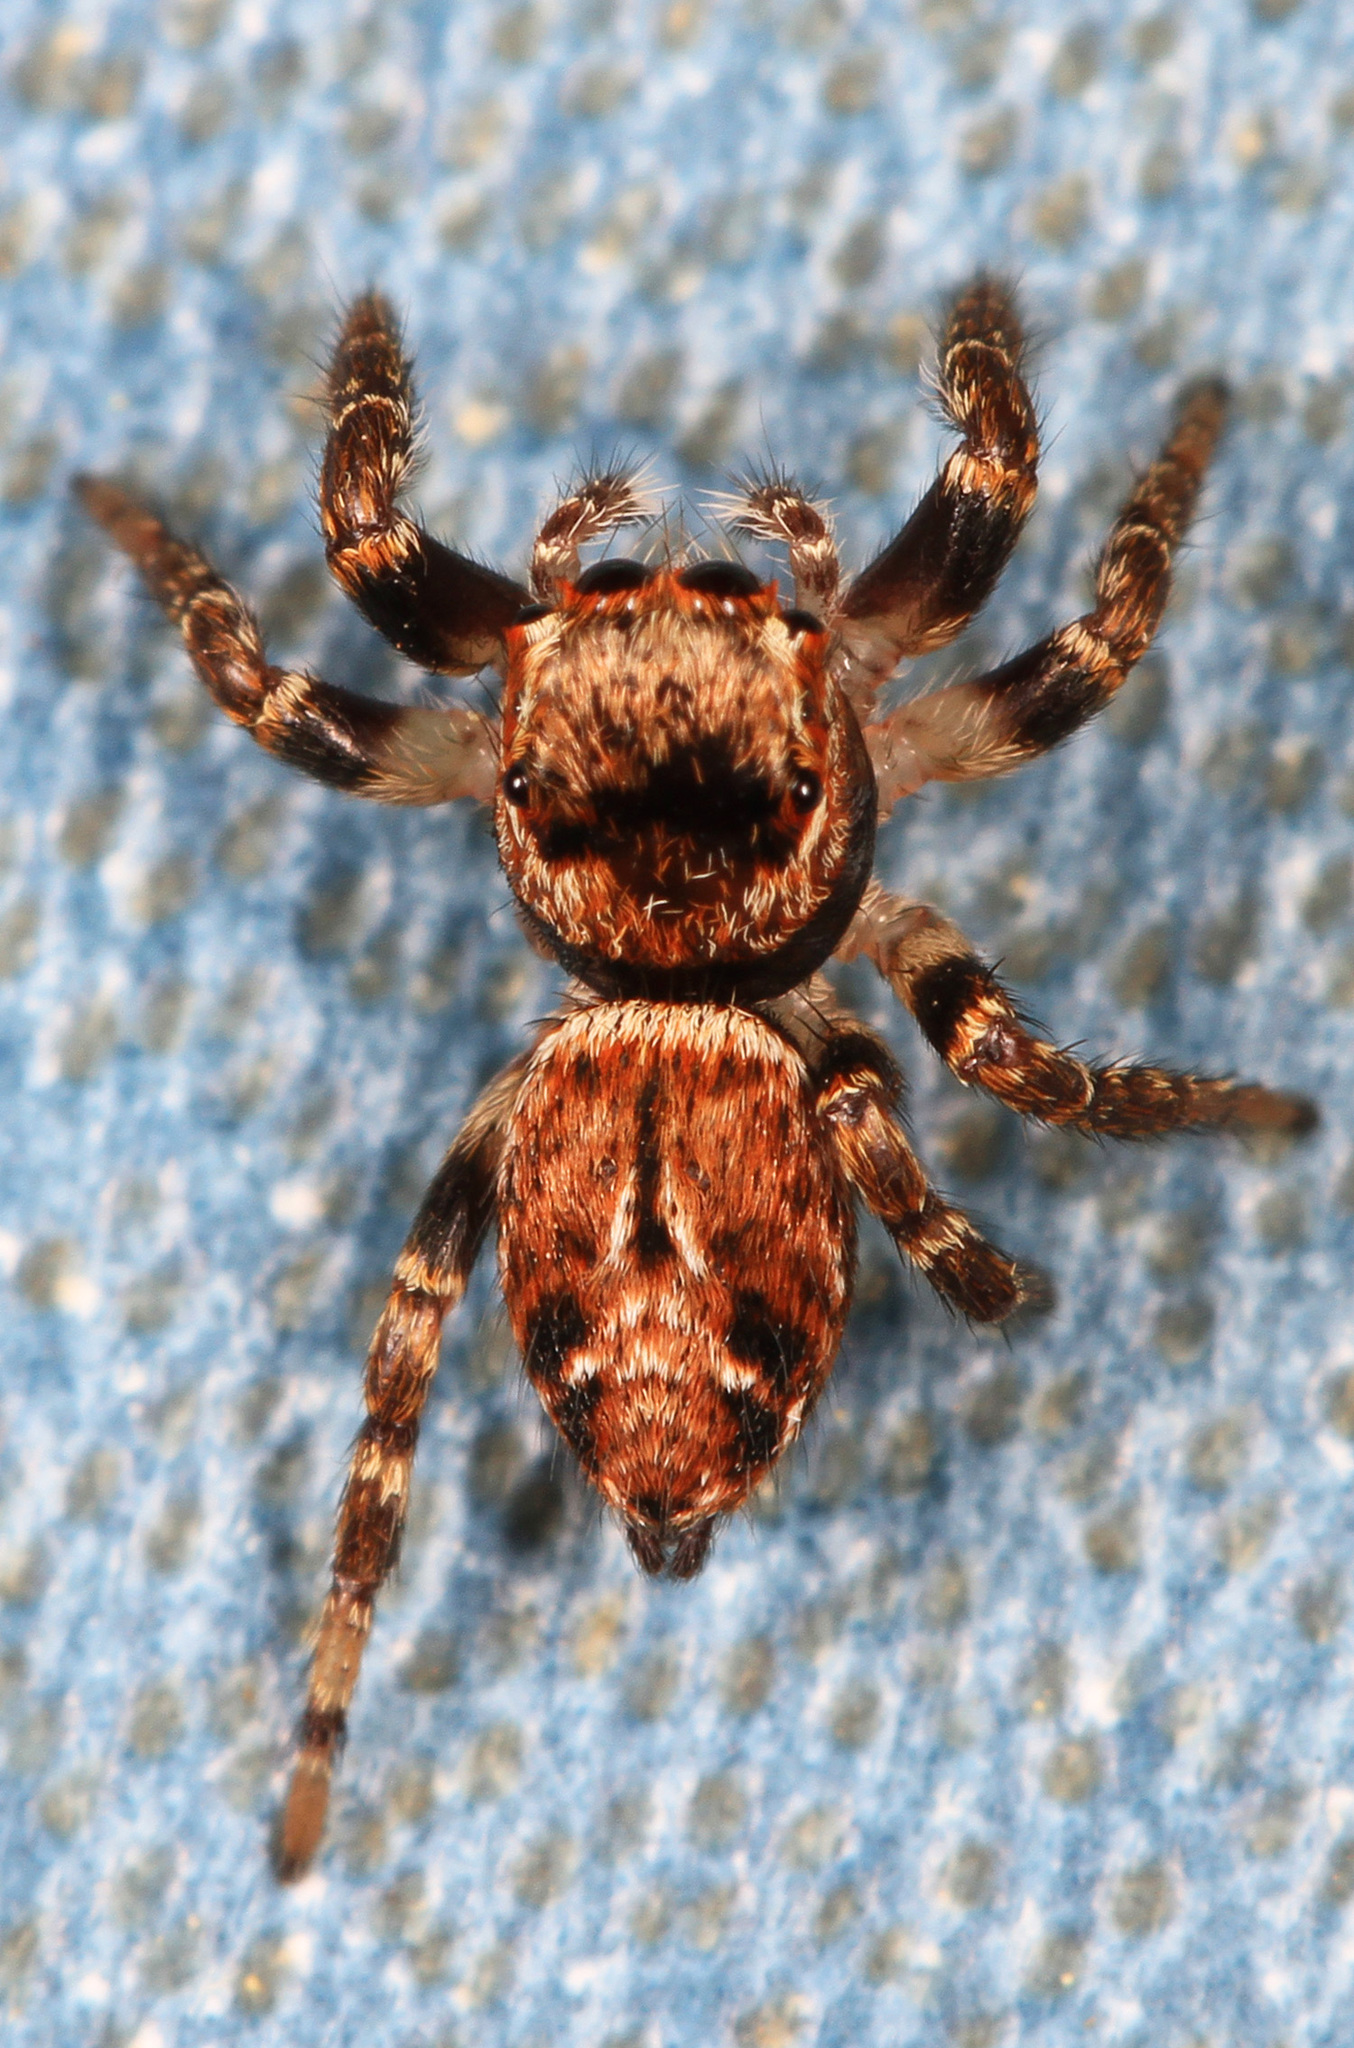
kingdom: Animalia
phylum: Arthropoda
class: Arachnida
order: Araneae
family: Salticidae
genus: Evarcha
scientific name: Evarcha proszynskii
